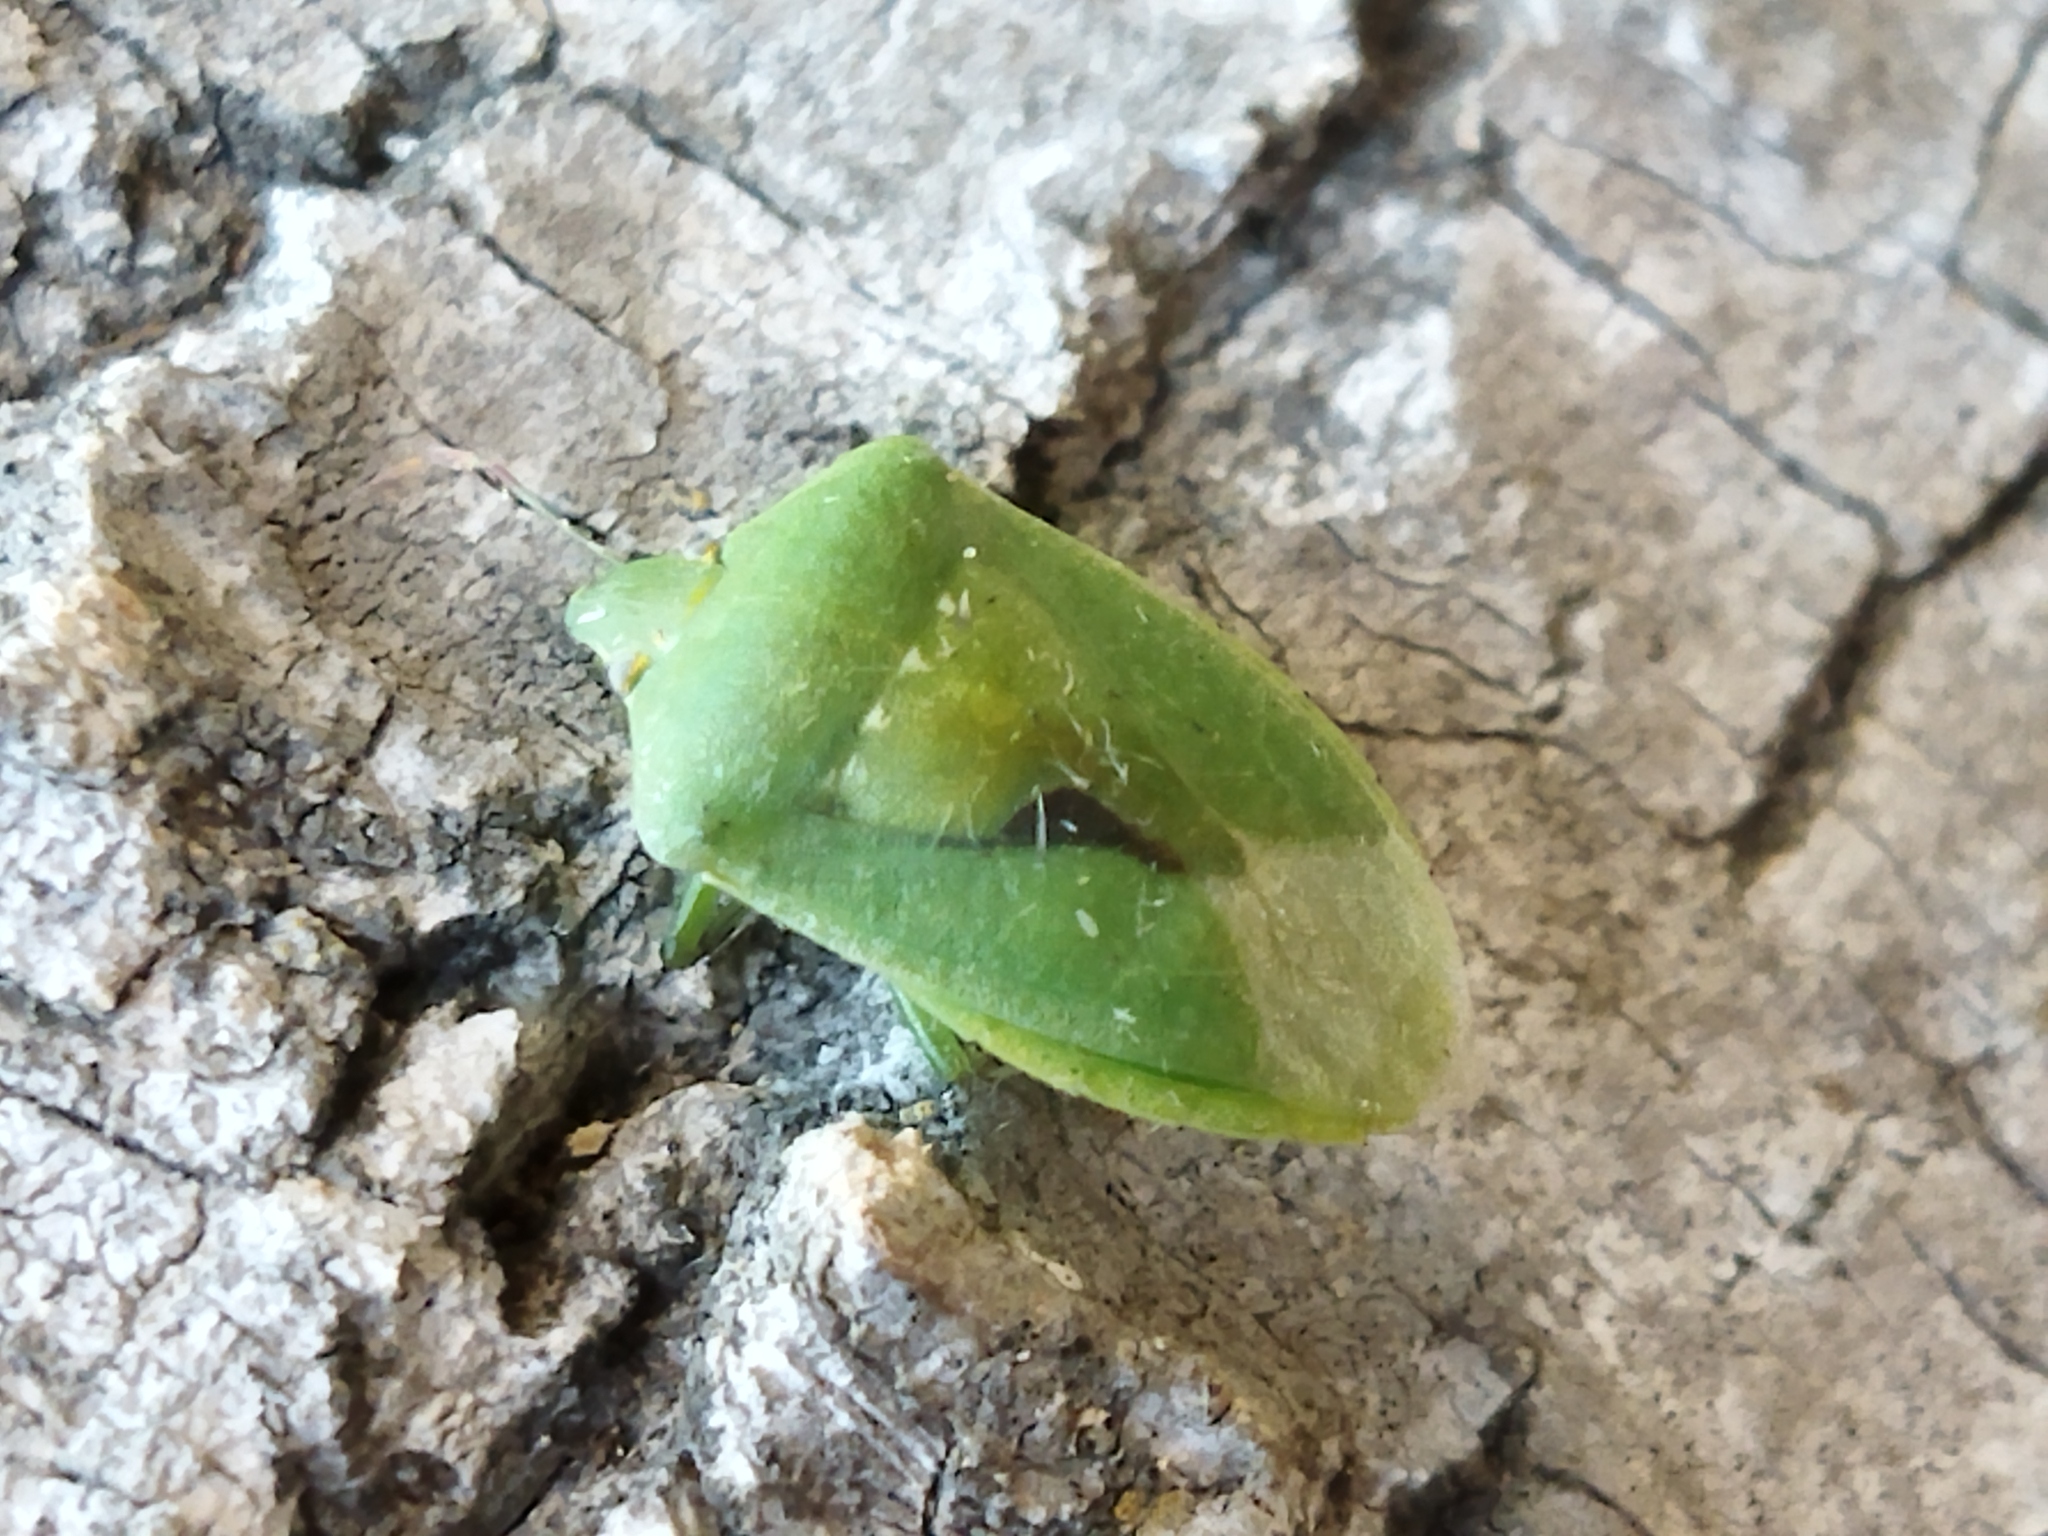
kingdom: Animalia
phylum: Arthropoda
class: Insecta
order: Hemiptera
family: Pentatomidae
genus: Nezara
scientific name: Nezara viridula
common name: Southern green stink bug
